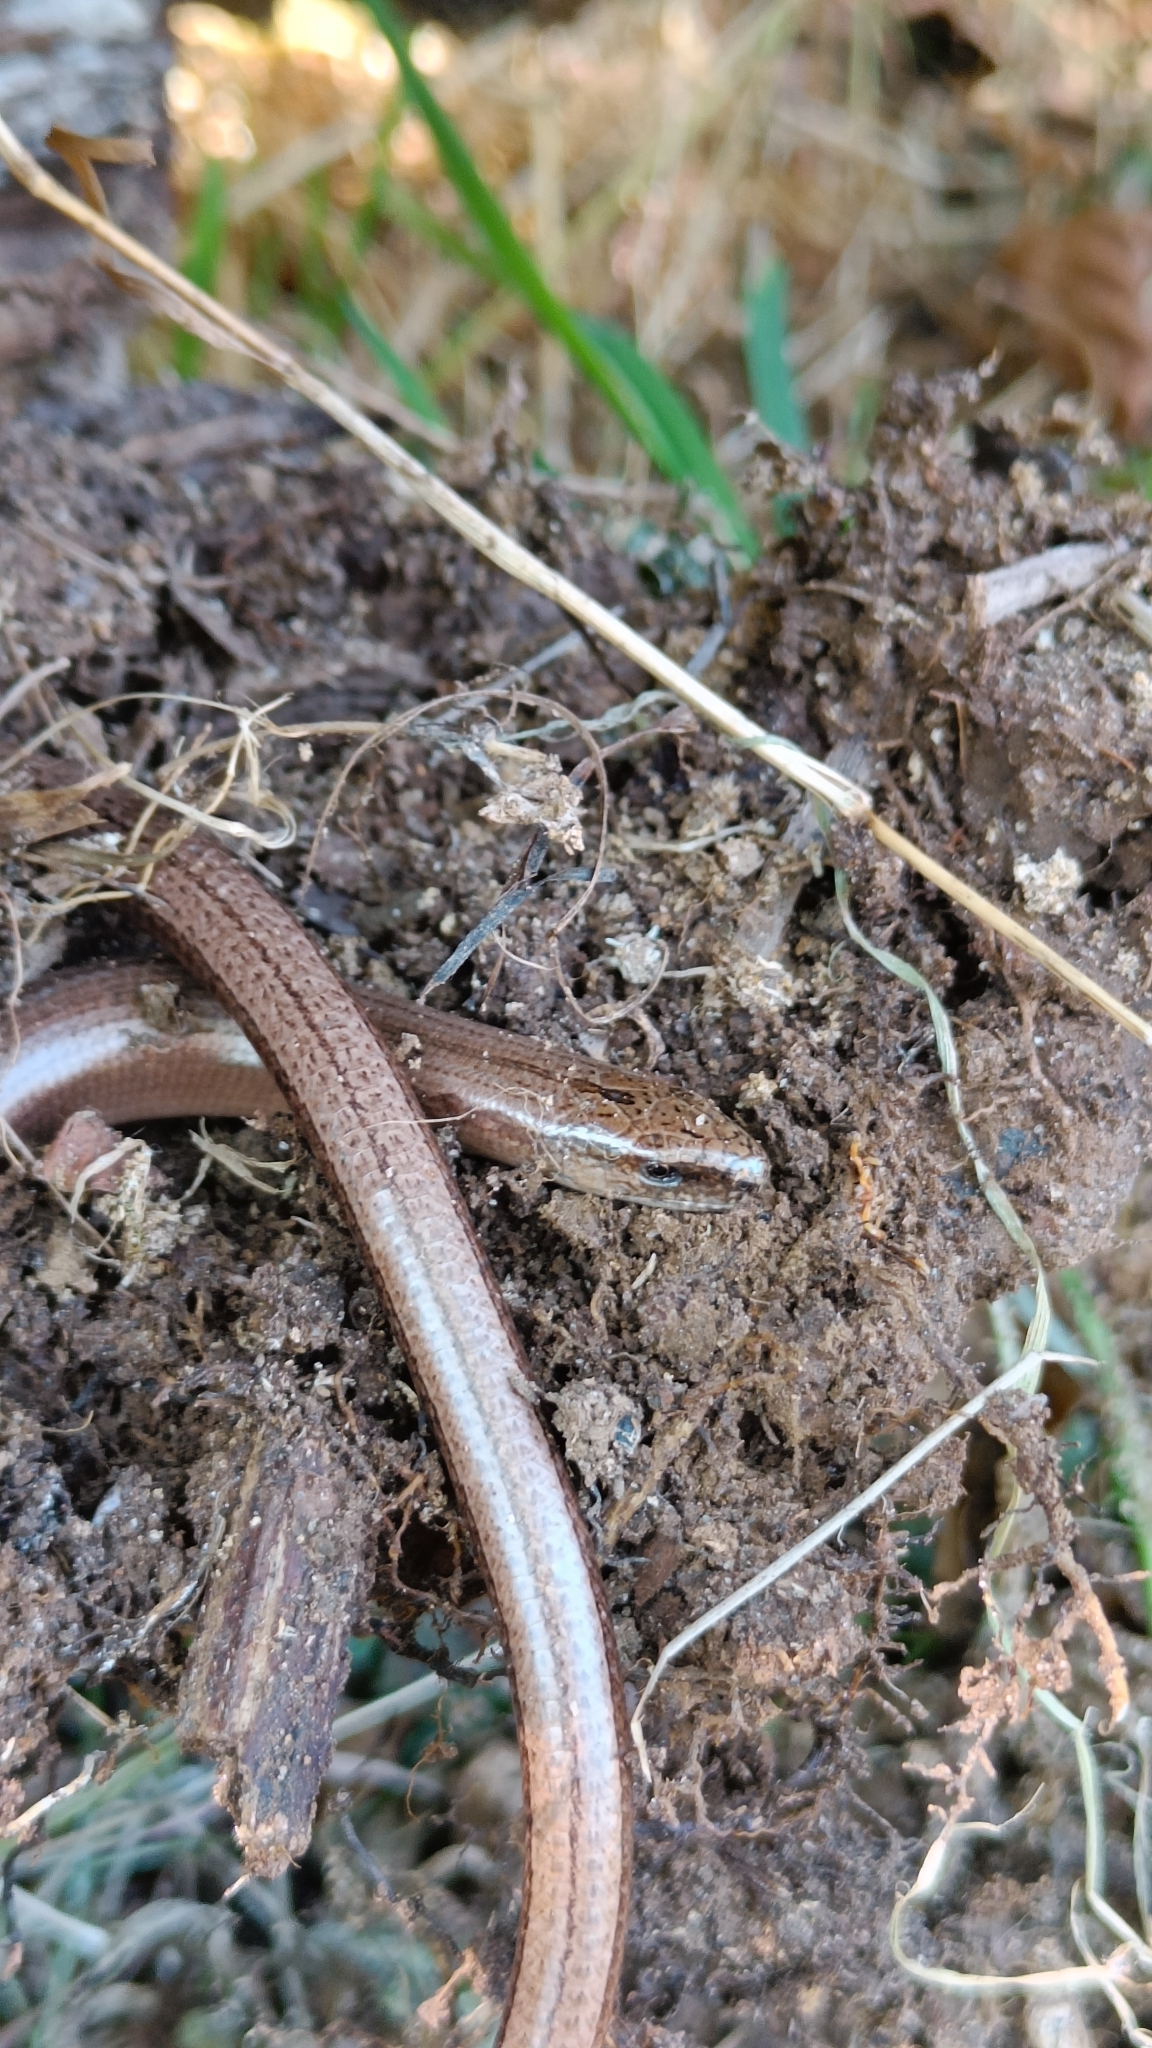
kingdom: Animalia
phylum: Chordata
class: Squamata
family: Anguidae
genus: Anguis
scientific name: Anguis fragilis
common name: Slow worm
